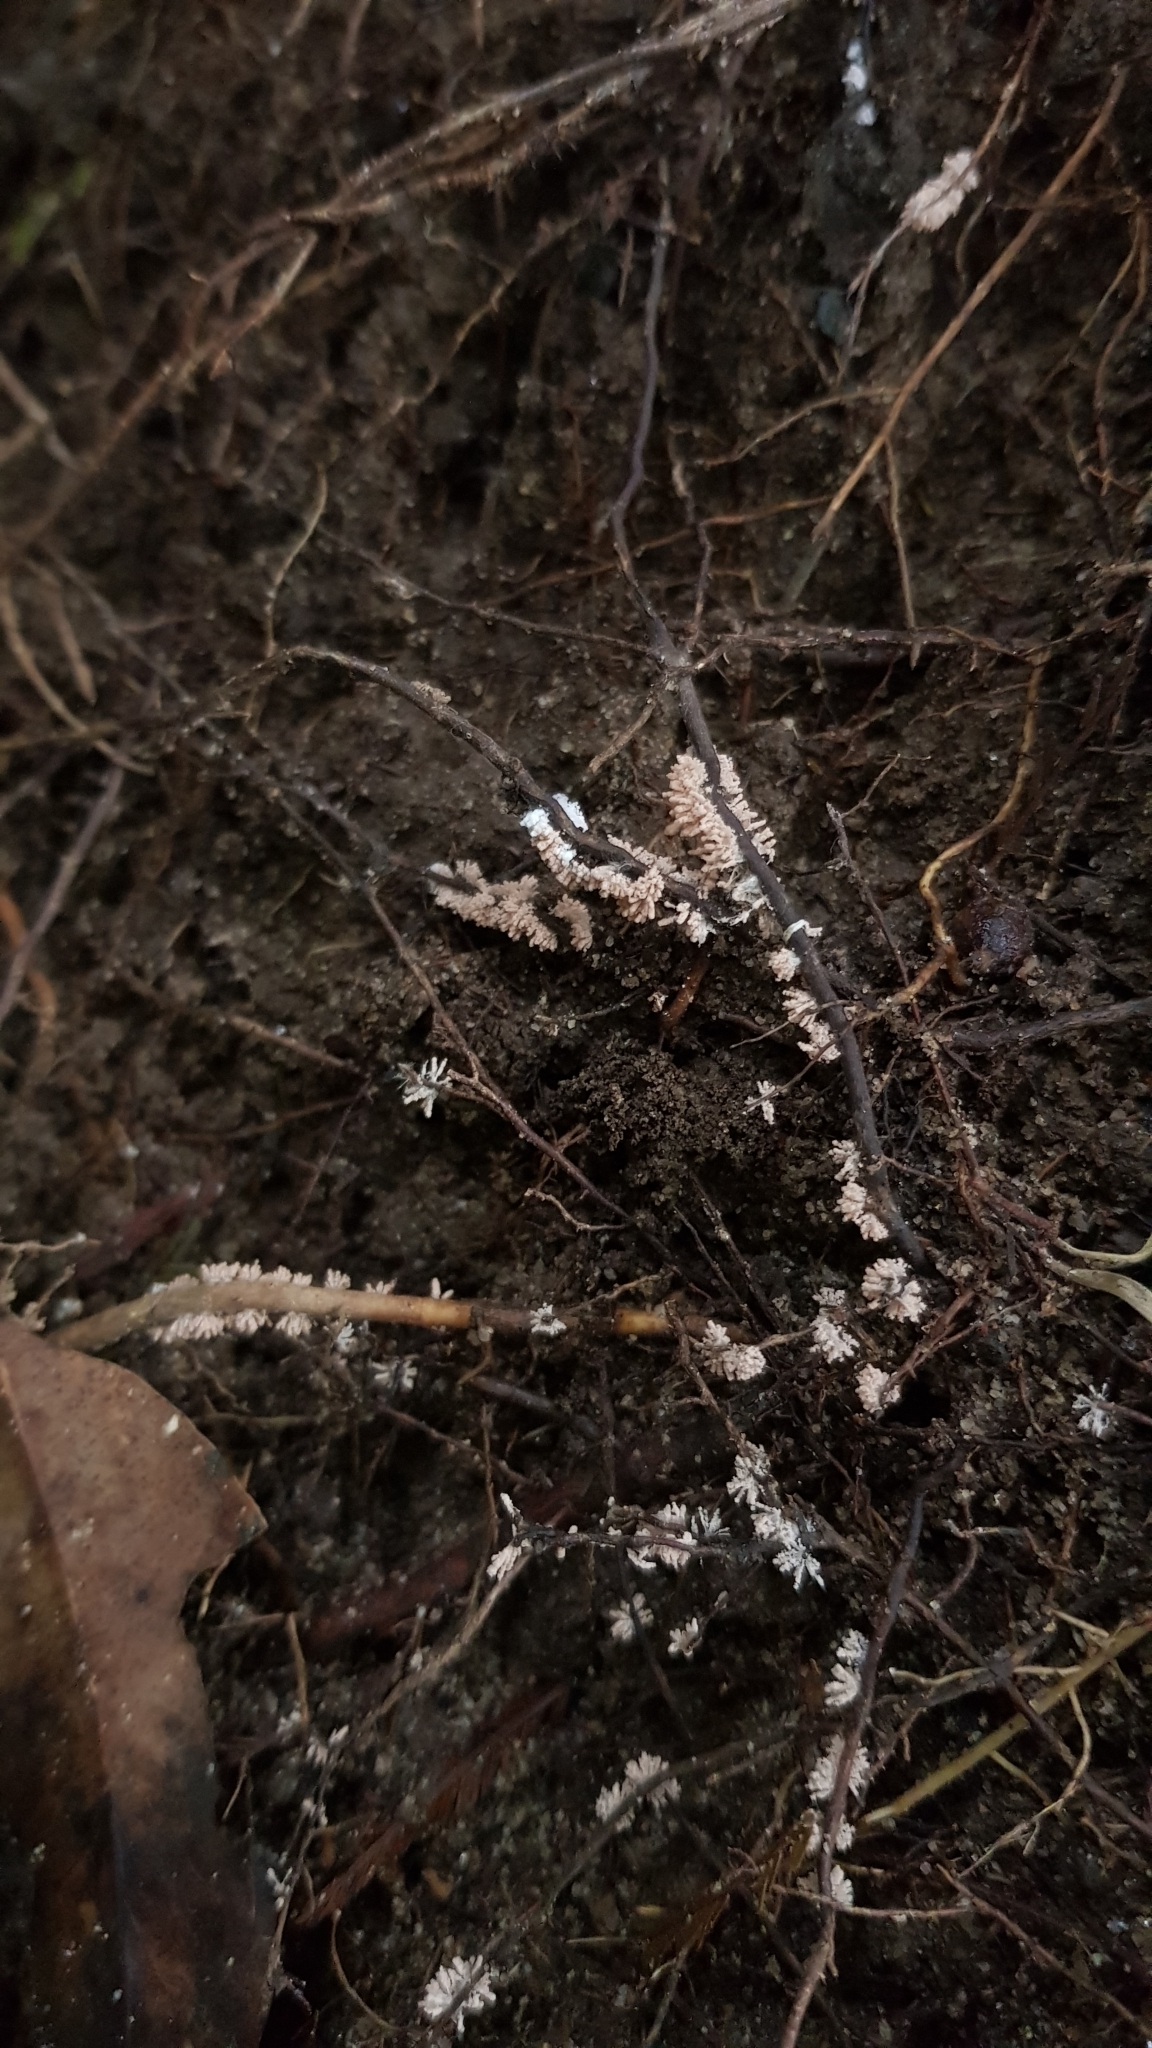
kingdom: Fungi
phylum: Ascomycota
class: Pezizomycetes
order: Pezizales
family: Pezizaceae
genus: Chromelosporiopsis
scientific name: Chromelosporiopsis carnea
